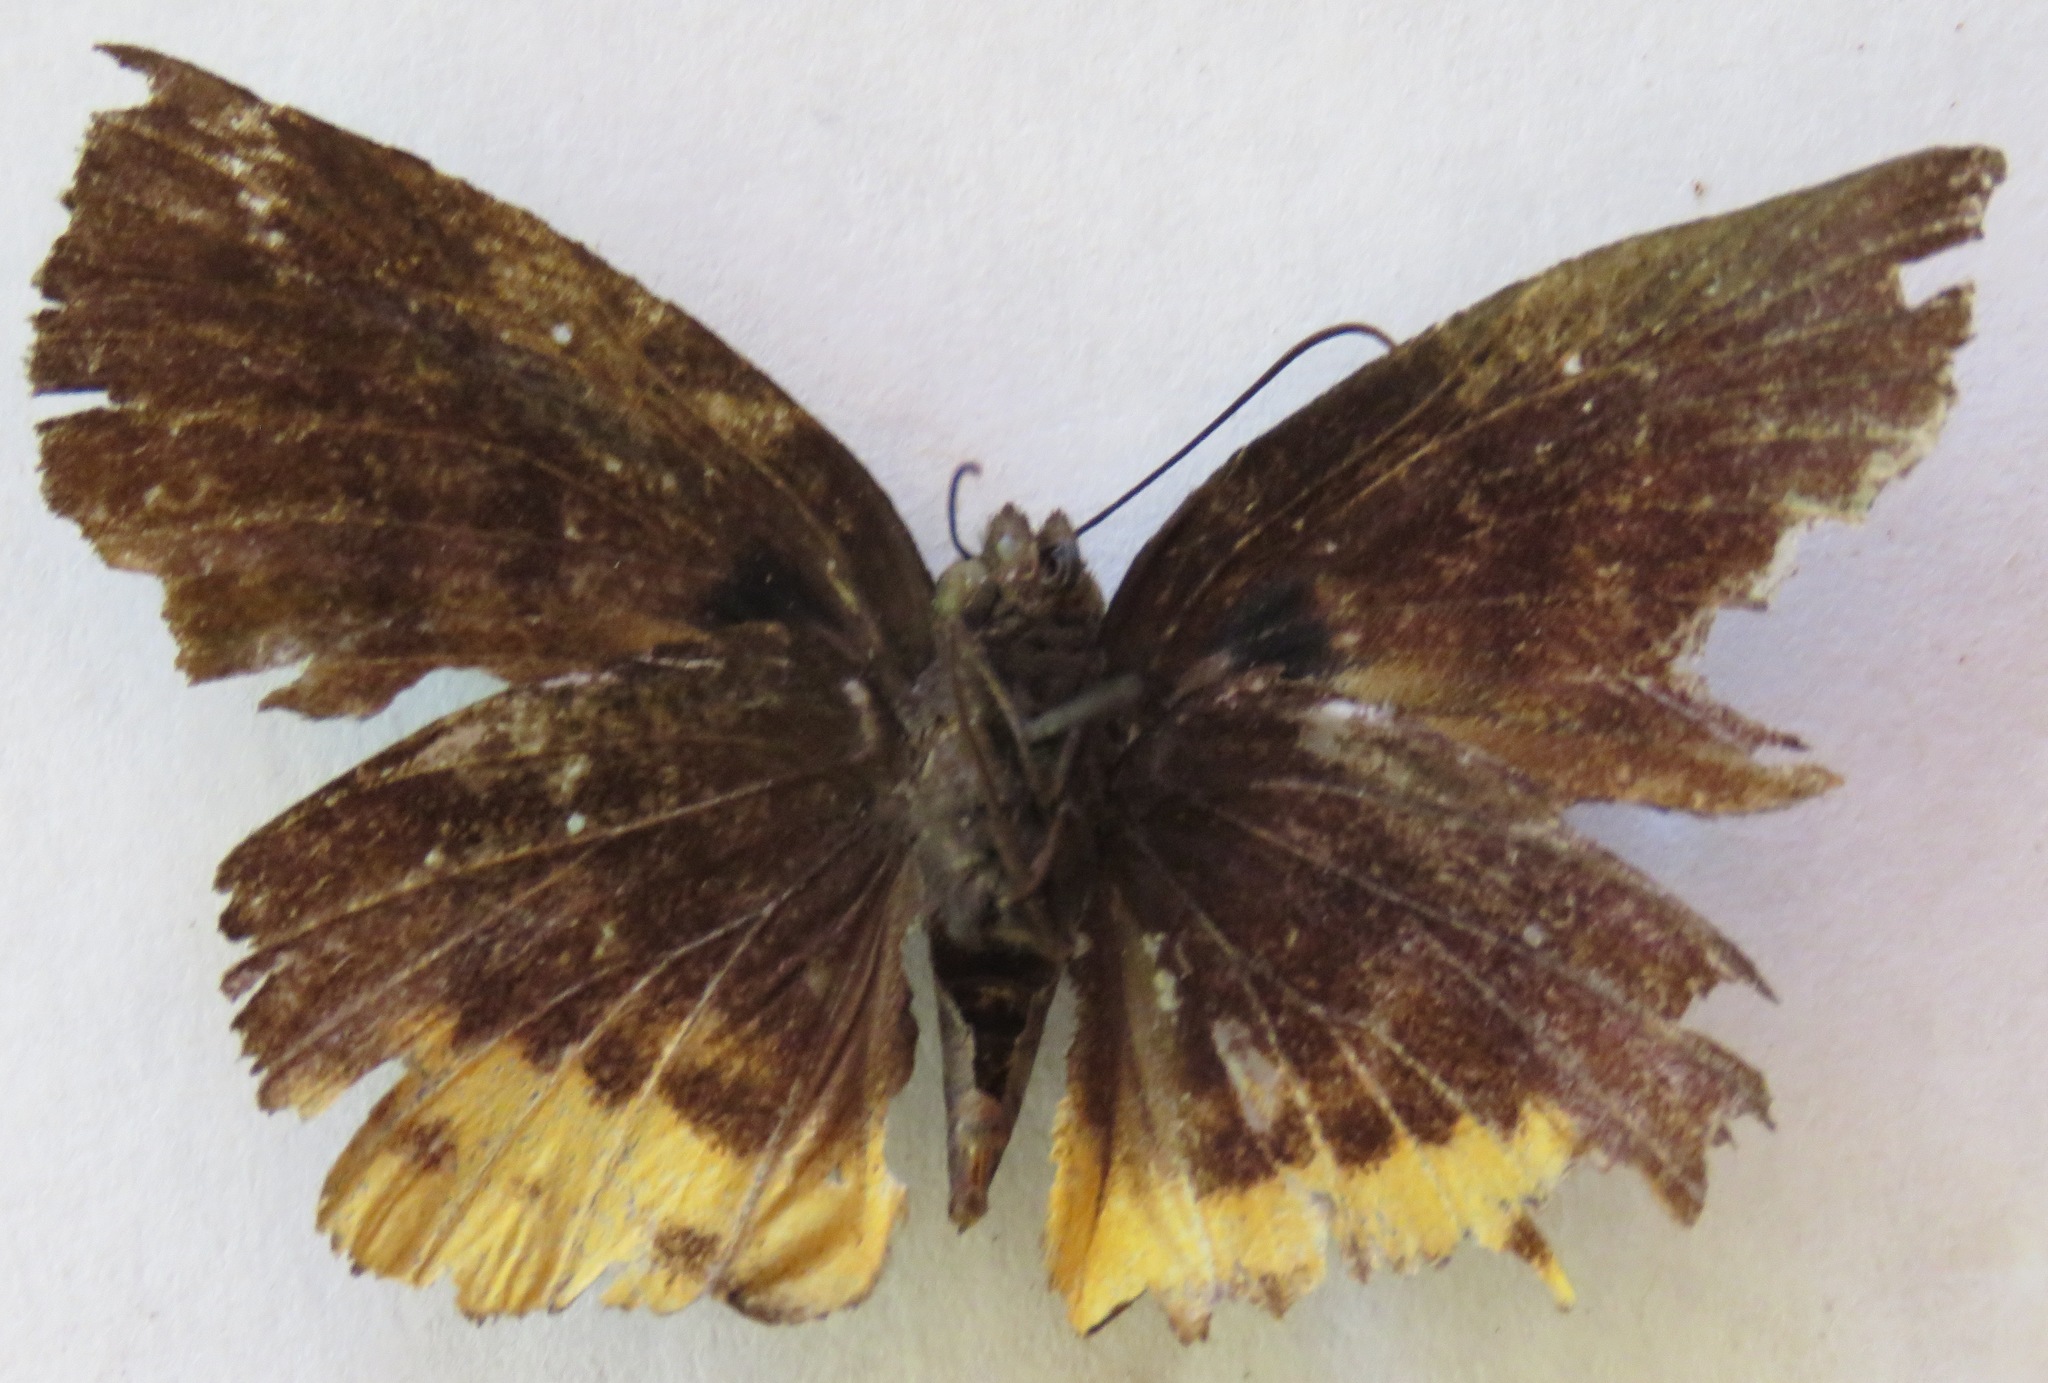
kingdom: Animalia
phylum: Arthropoda
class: Insecta
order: Lepidoptera
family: Hesperiidae
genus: Achlyodes
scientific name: Achlyodes busirus
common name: Giant sicklewing
